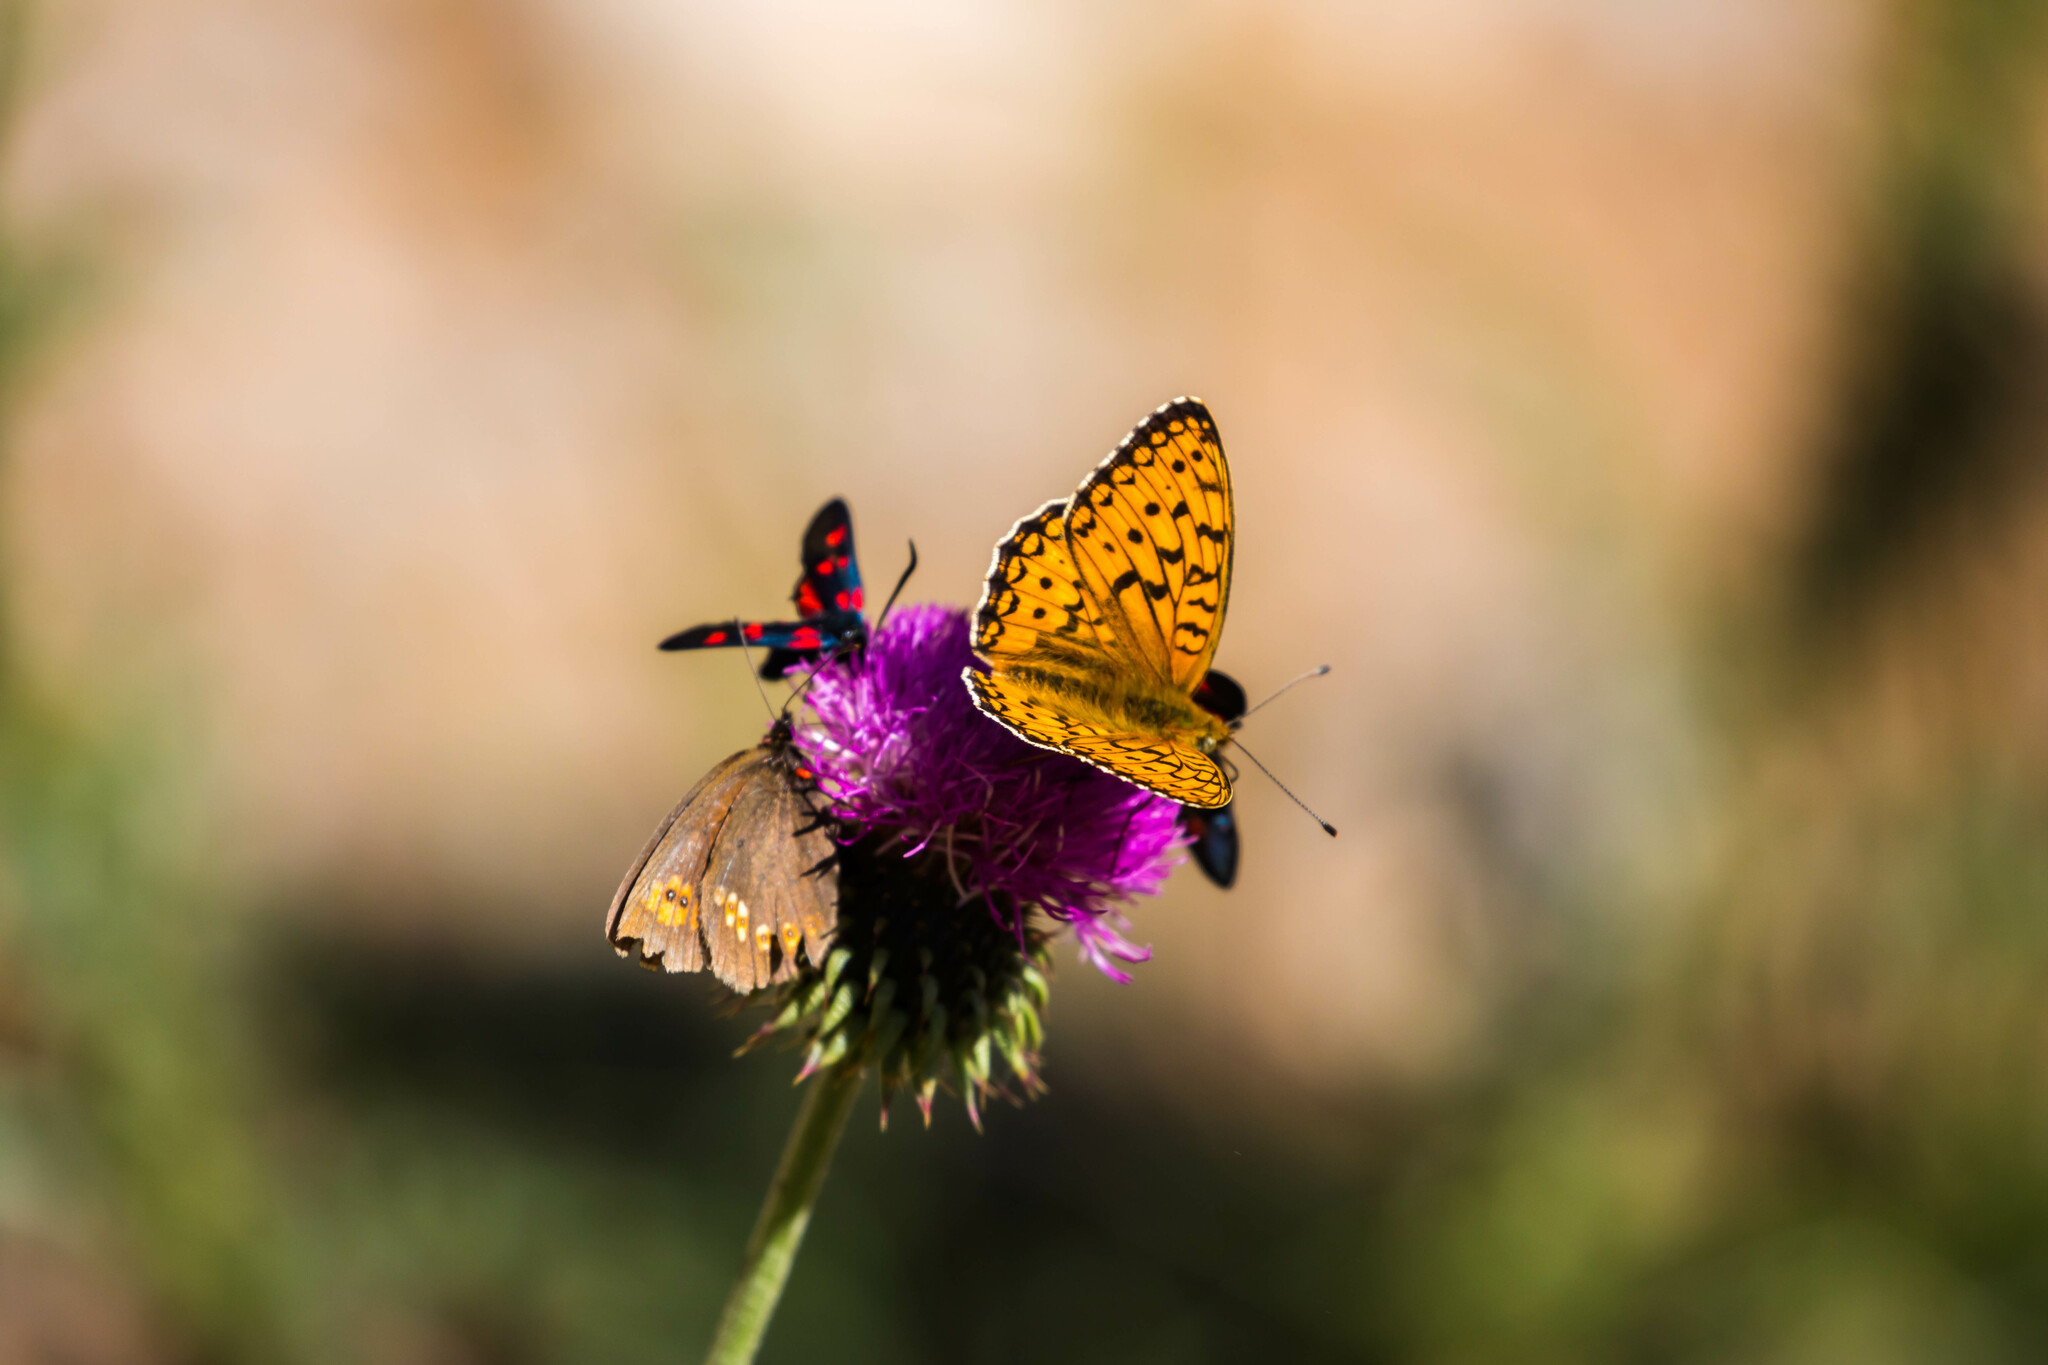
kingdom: Animalia
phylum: Arthropoda
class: Insecta
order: Lepidoptera
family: Nymphalidae
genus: Fabriciana
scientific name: Fabriciana niobe
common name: Niobe fritillary
